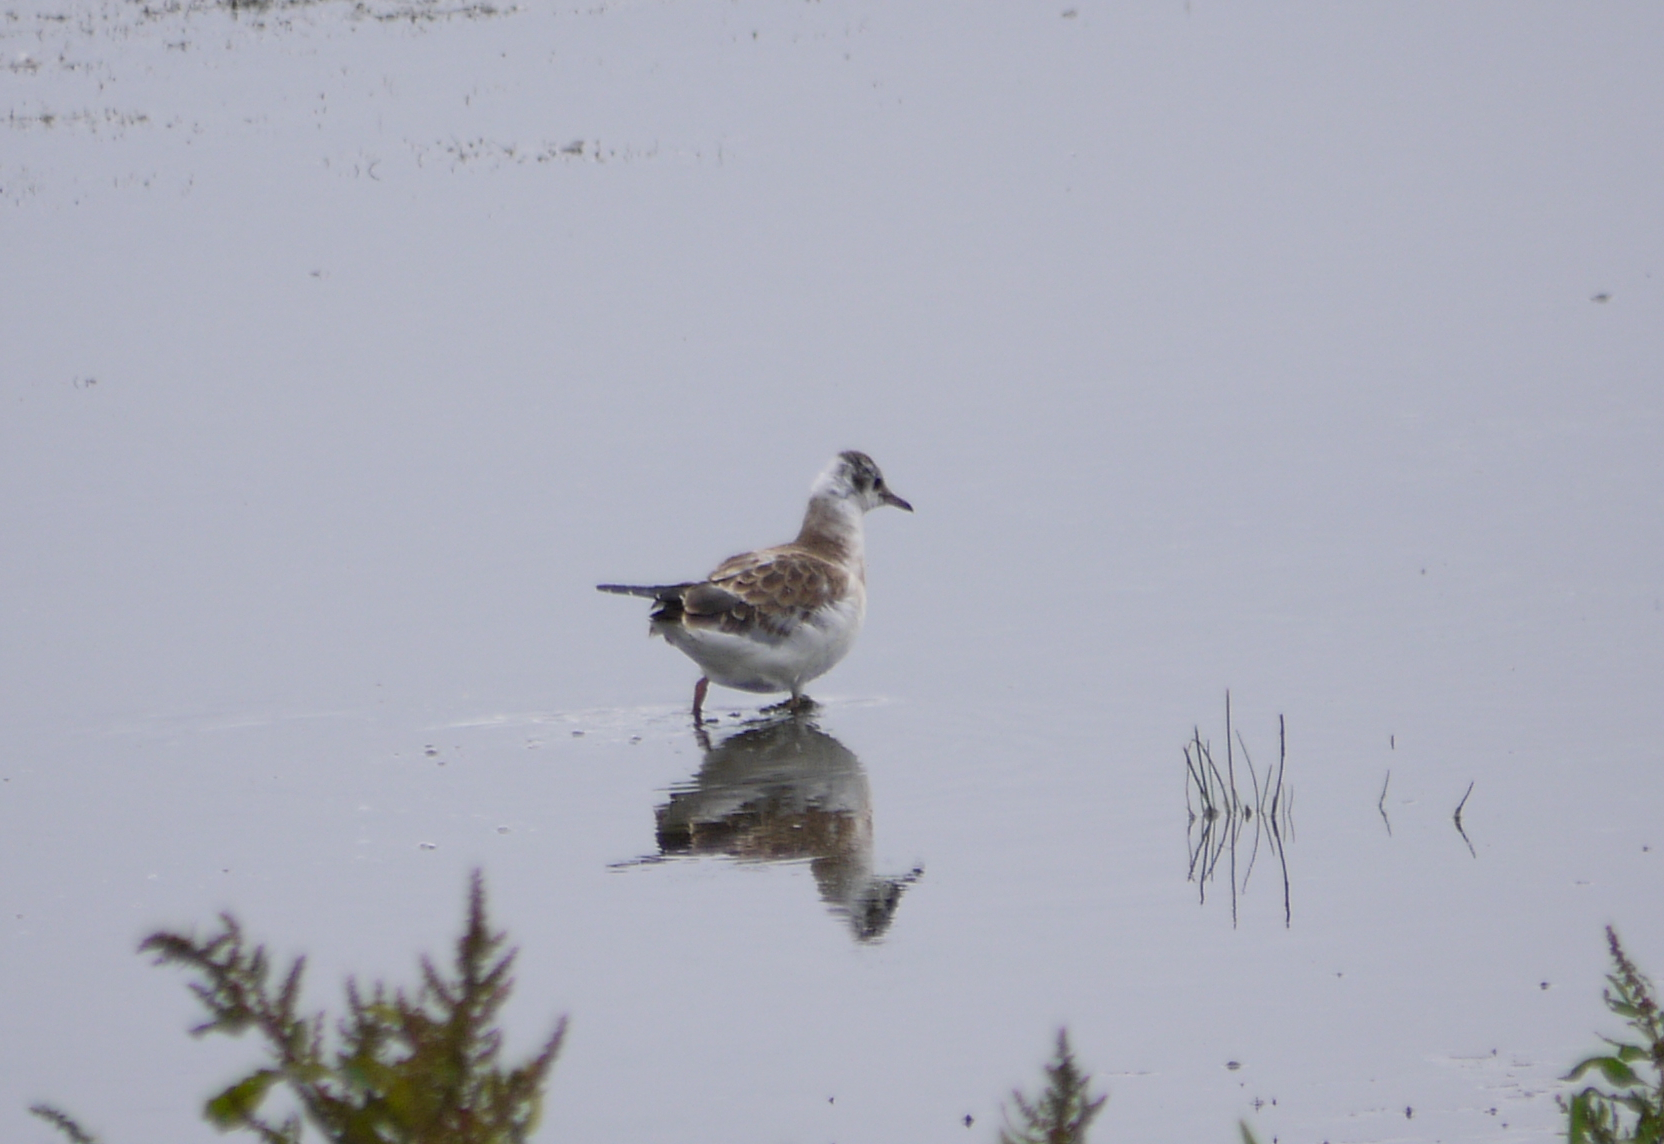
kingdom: Animalia
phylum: Chordata
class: Aves
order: Charadriiformes
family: Laridae
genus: Chroicocephalus
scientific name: Chroicocephalus ridibundus
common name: Black-headed gull
